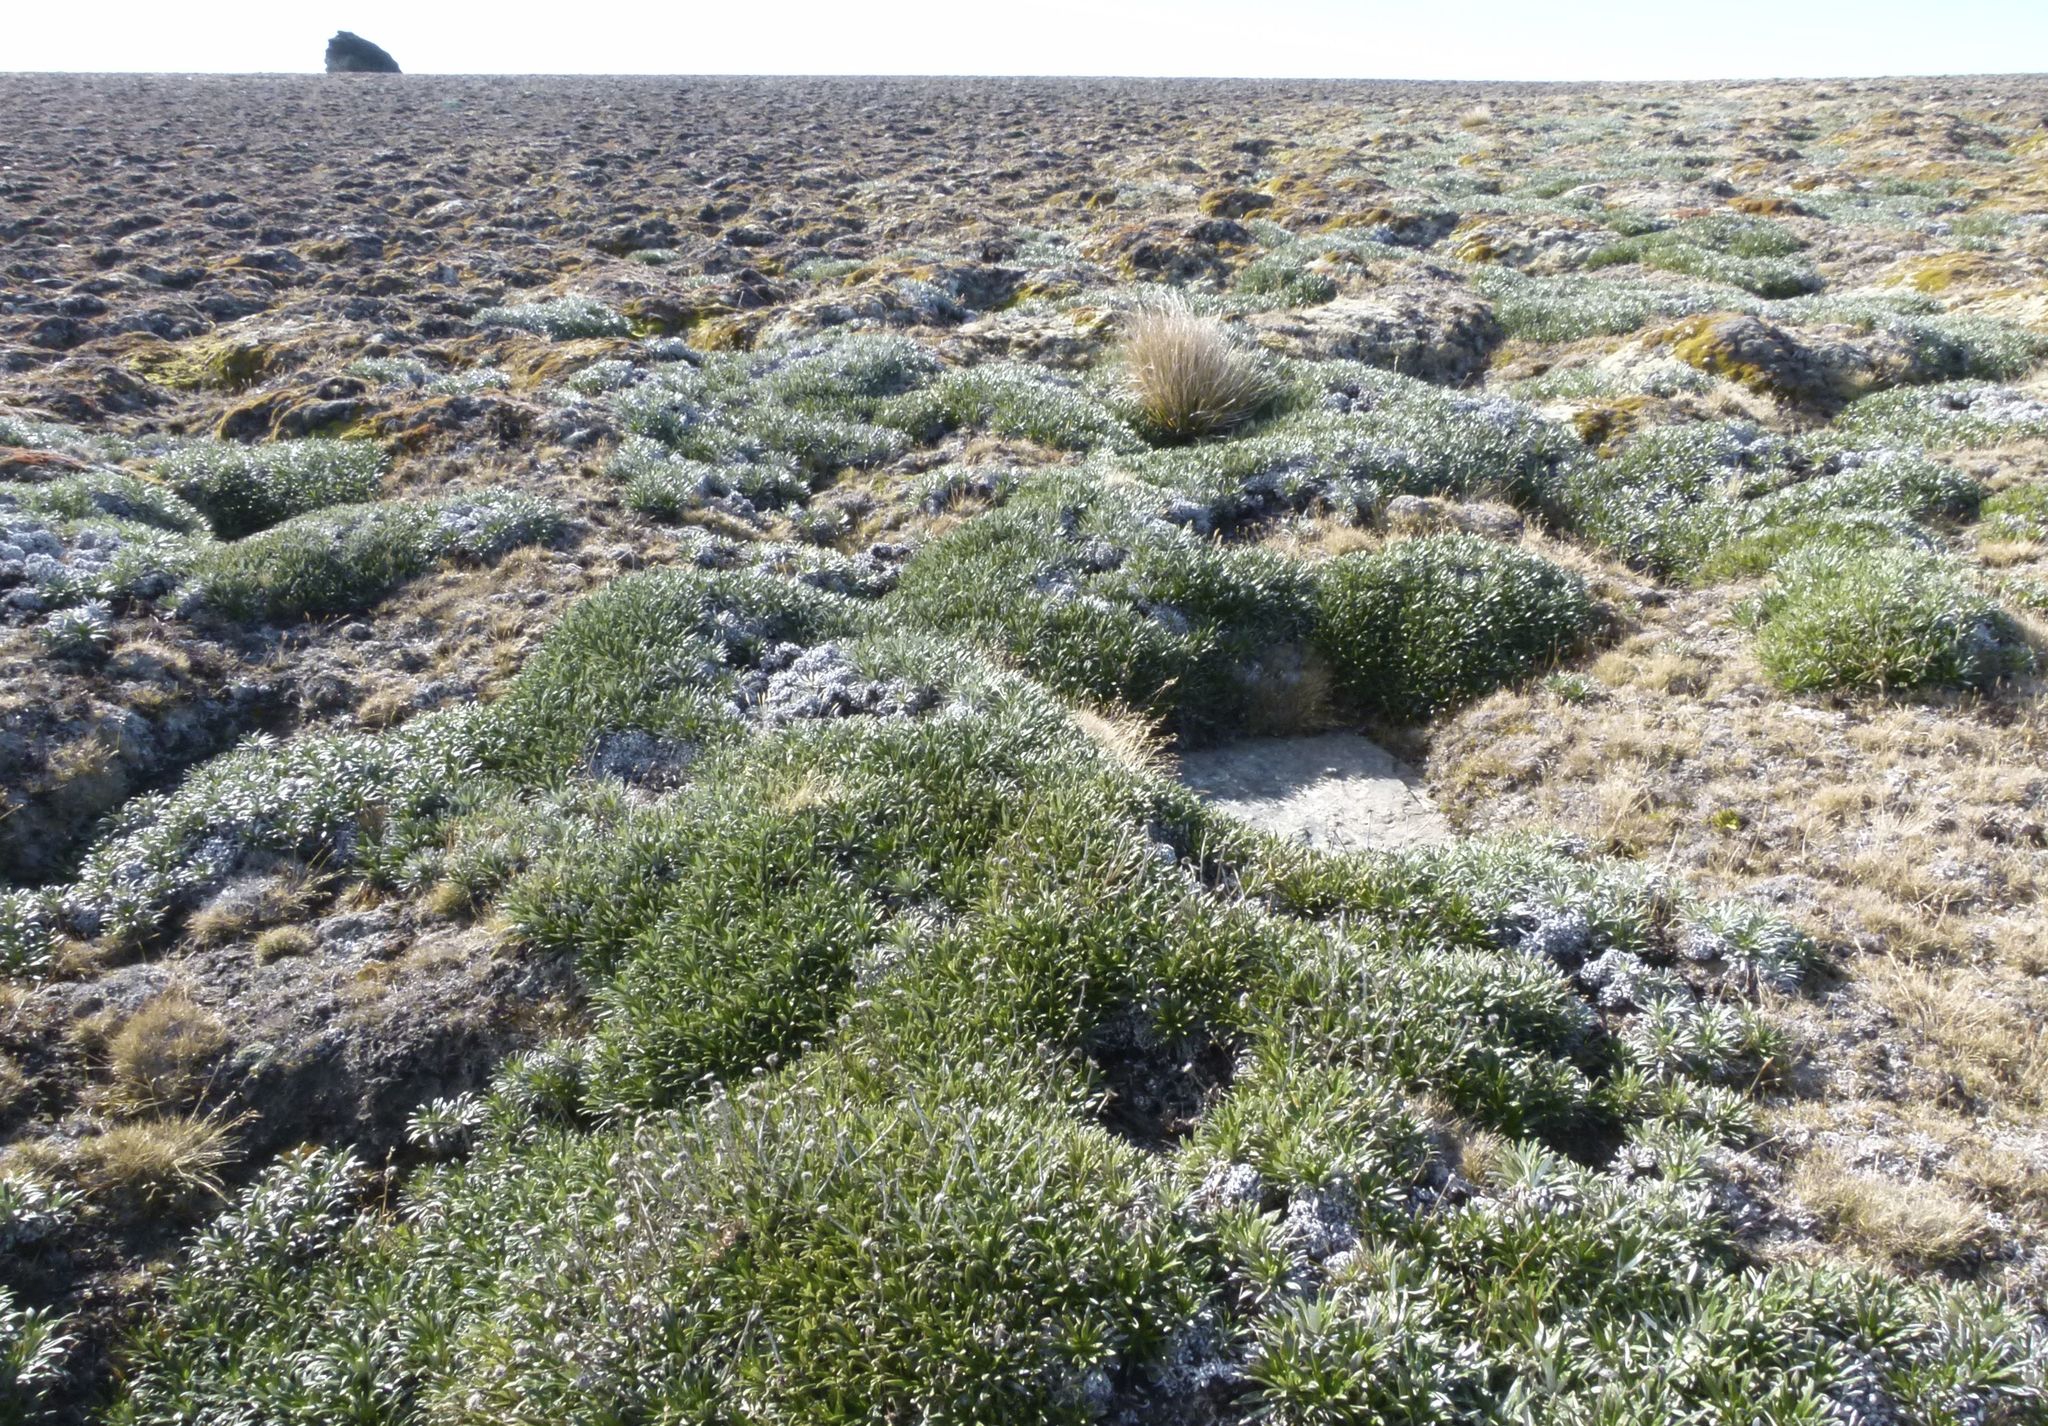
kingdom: Plantae
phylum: Tracheophyta
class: Magnoliopsida
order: Asterales
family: Asteraceae
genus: Celmisia
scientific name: Celmisia viscosa
